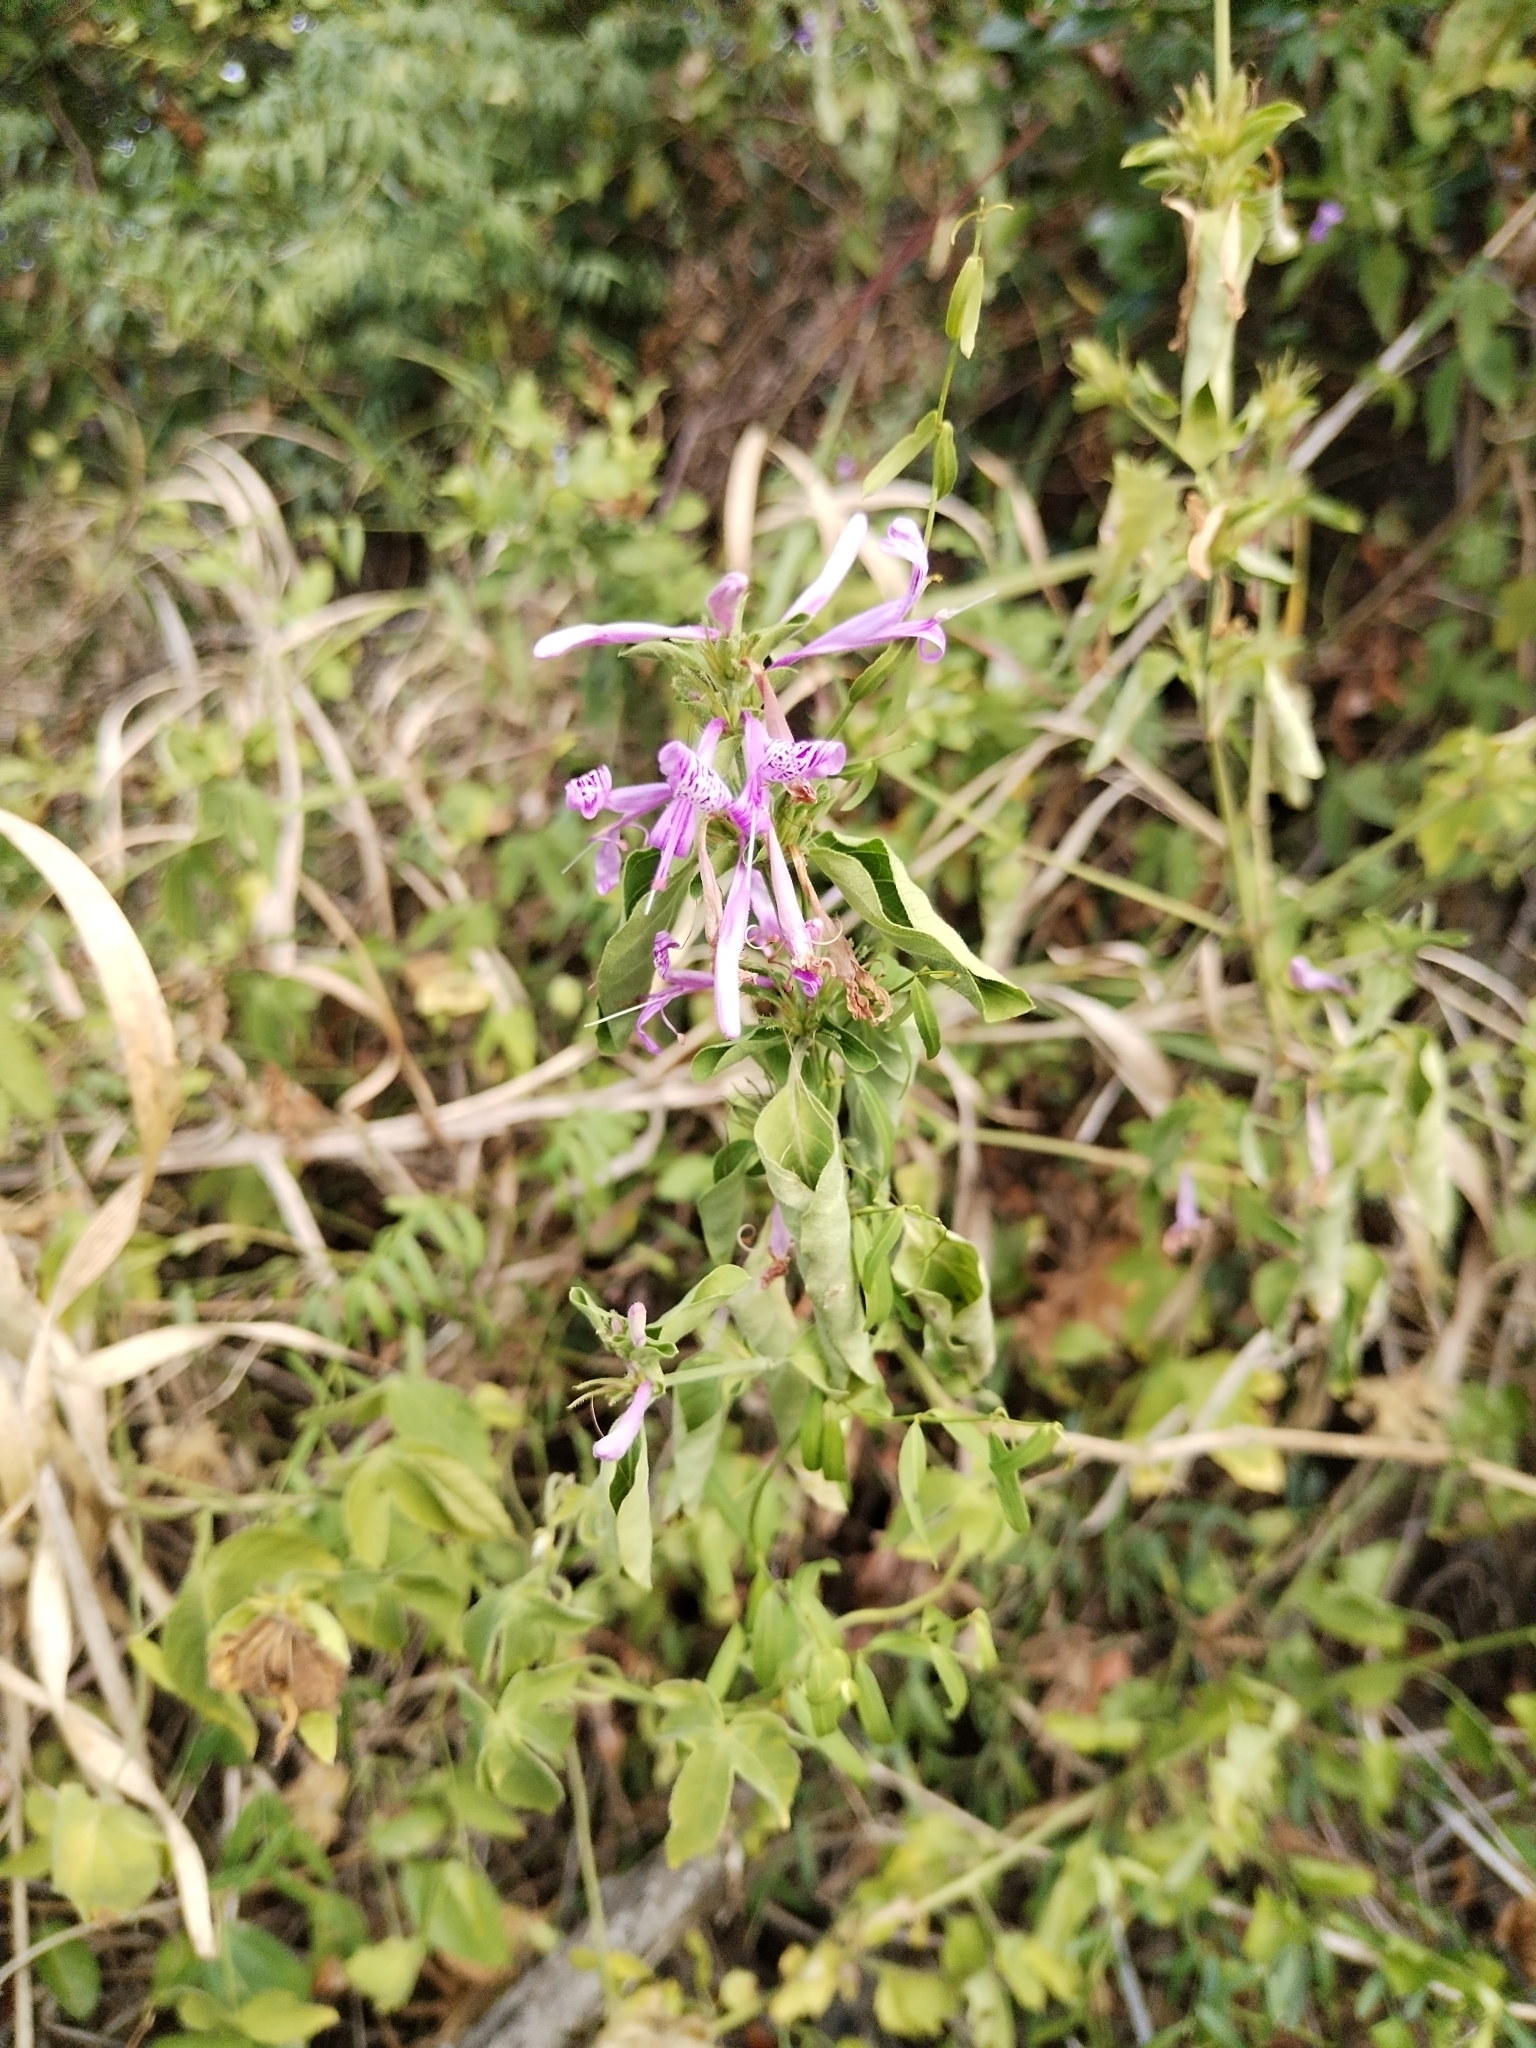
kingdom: Plantae
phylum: Tracheophyta
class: Magnoliopsida
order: Lamiales
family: Acanthaceae
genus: Hypoestes
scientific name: Hypoestes aristata
